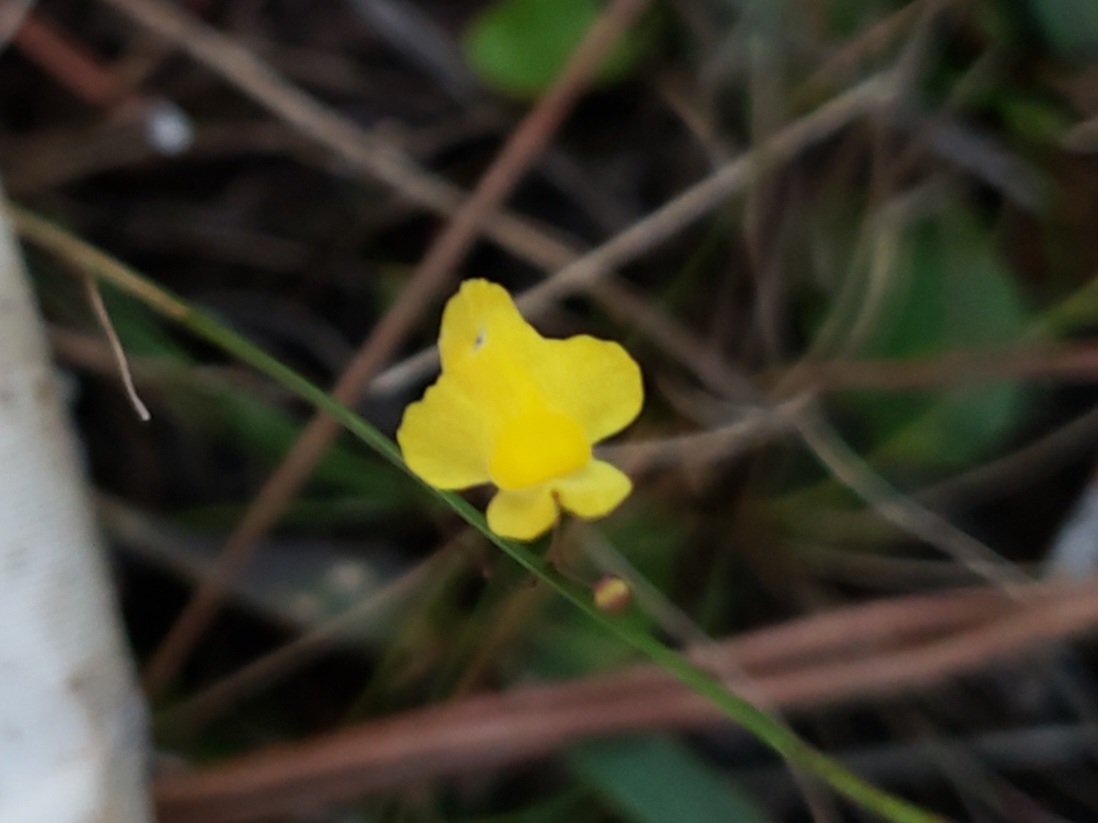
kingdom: Plantae
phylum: Tracheophyta
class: Magnoliopsida
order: Lamiales
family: Lentibulariaceae
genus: Utricularia
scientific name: Utricularia subulata
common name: Tiny bladderwort
